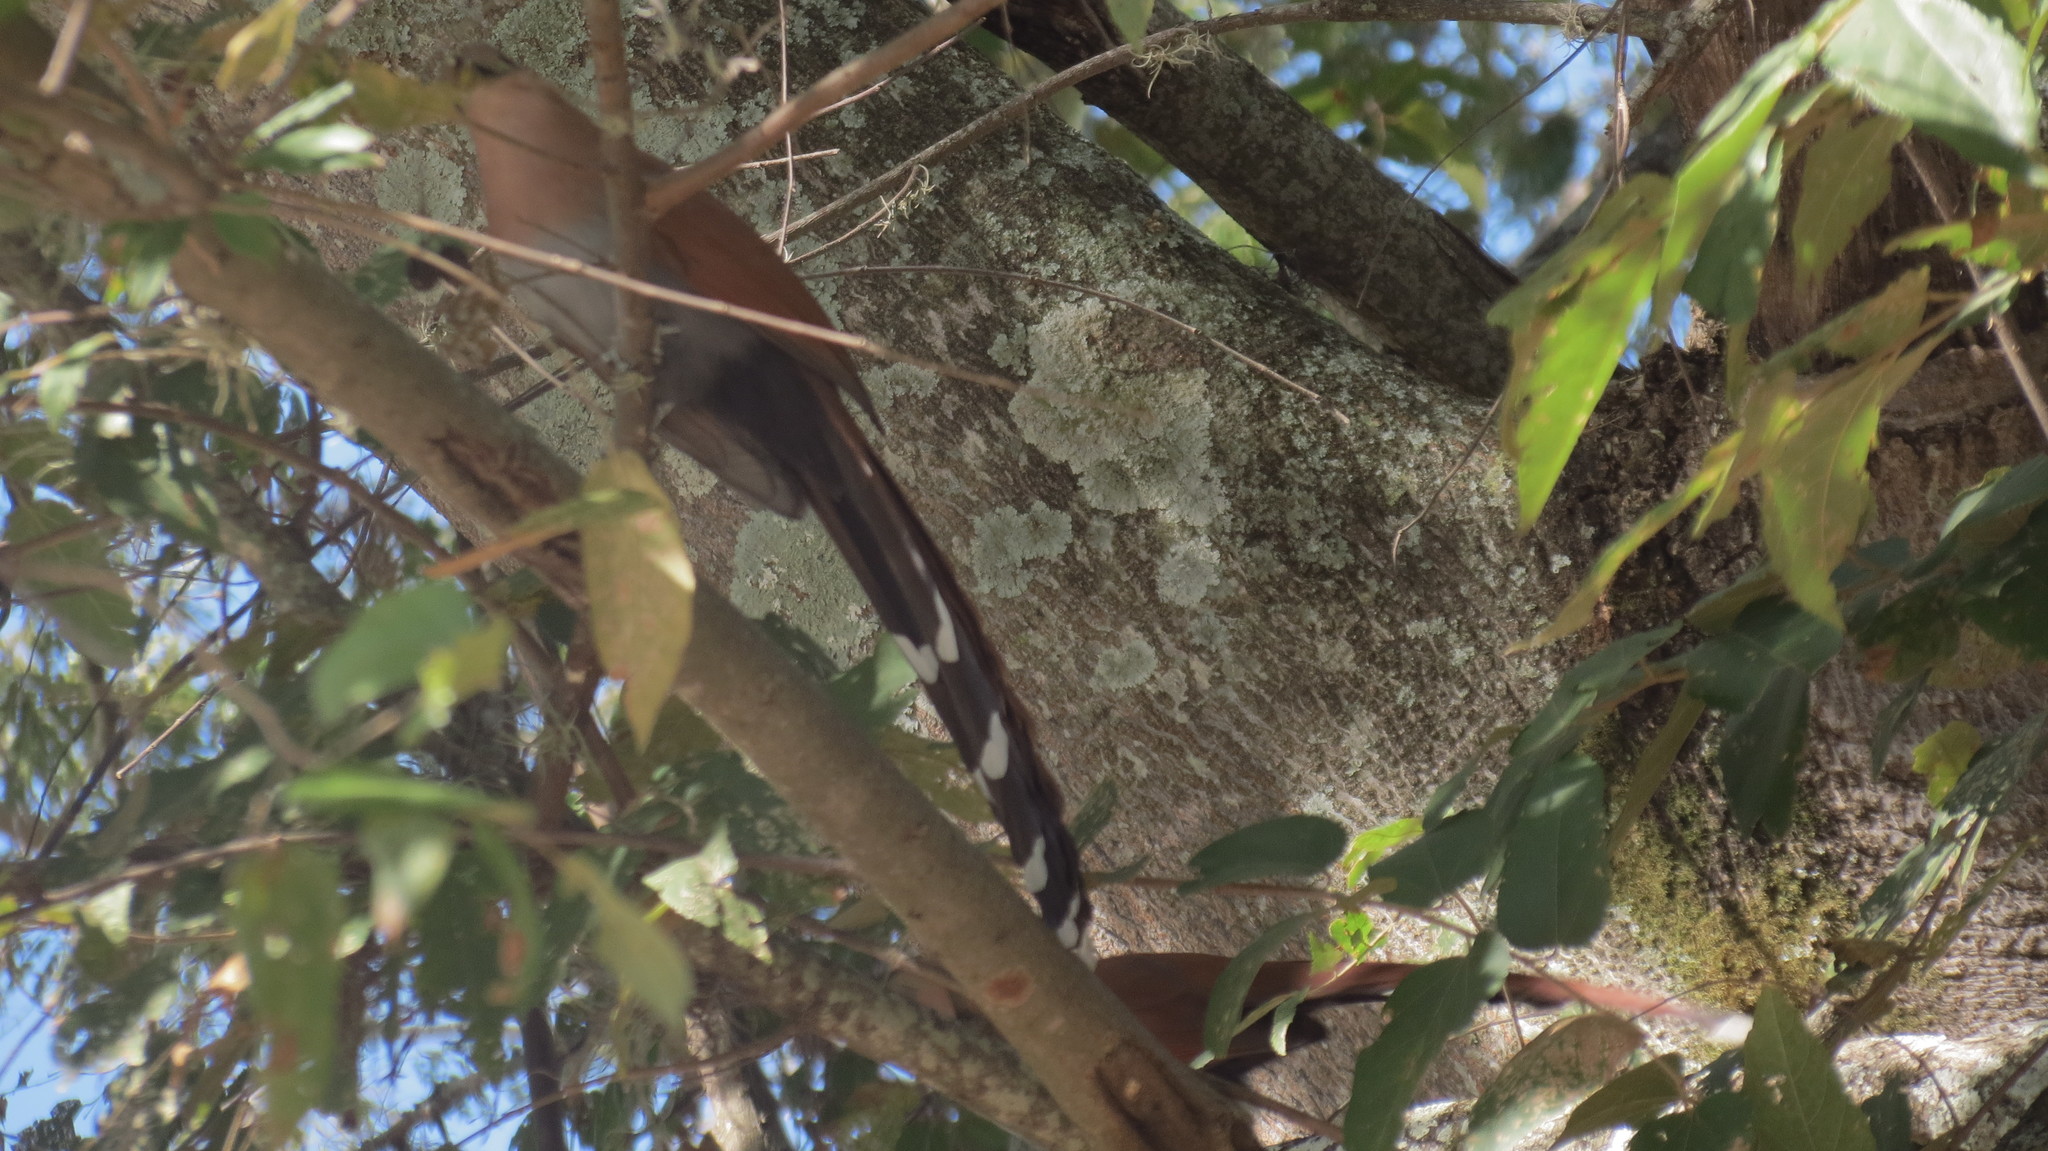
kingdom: Animalia
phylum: Chordata
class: Aves
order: Cuculiformes
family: Cuculidae
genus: Piaya
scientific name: Piaya cayana
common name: Squirrel cuckoo
